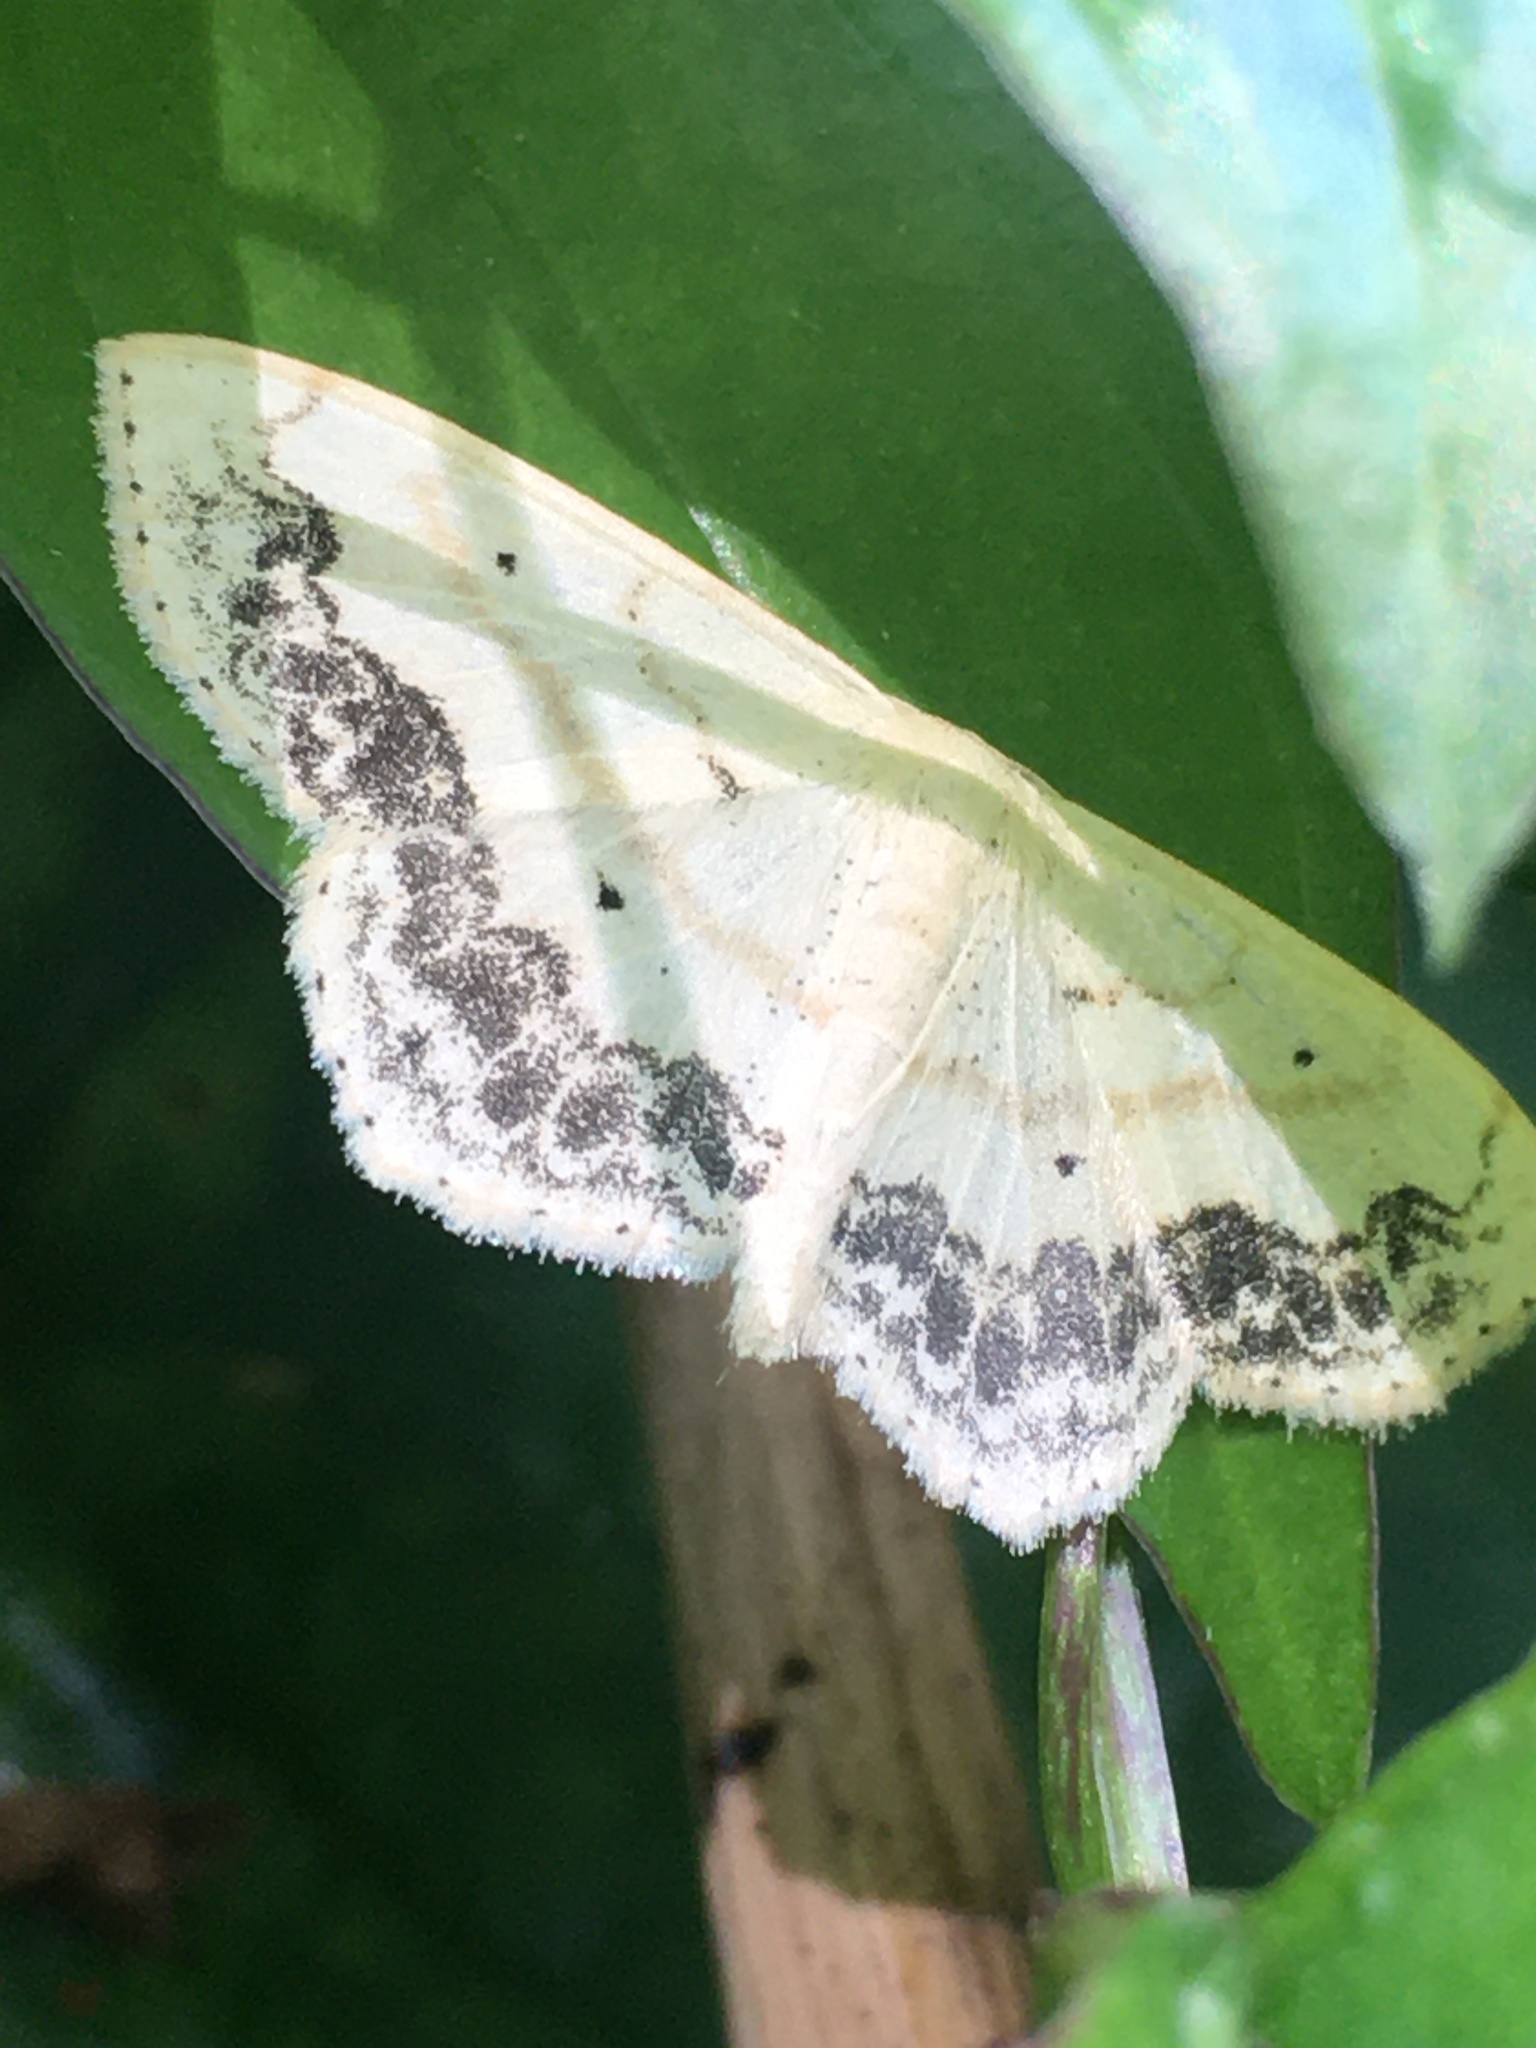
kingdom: Animalia
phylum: Arthropoda
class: Insecta
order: Lepidoptera
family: Geometridae
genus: Scopula
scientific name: Scopula limboundata
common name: Large lace border
